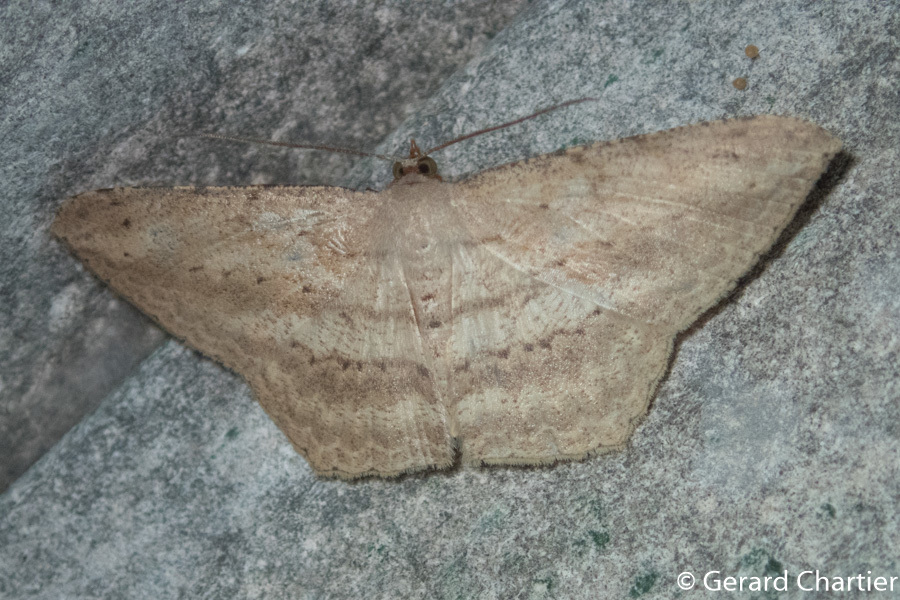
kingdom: Animalia
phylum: Arthropoda
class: Insecta
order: Lepidoptera
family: Geometridae
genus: Probithia
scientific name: Probithia imprimata
